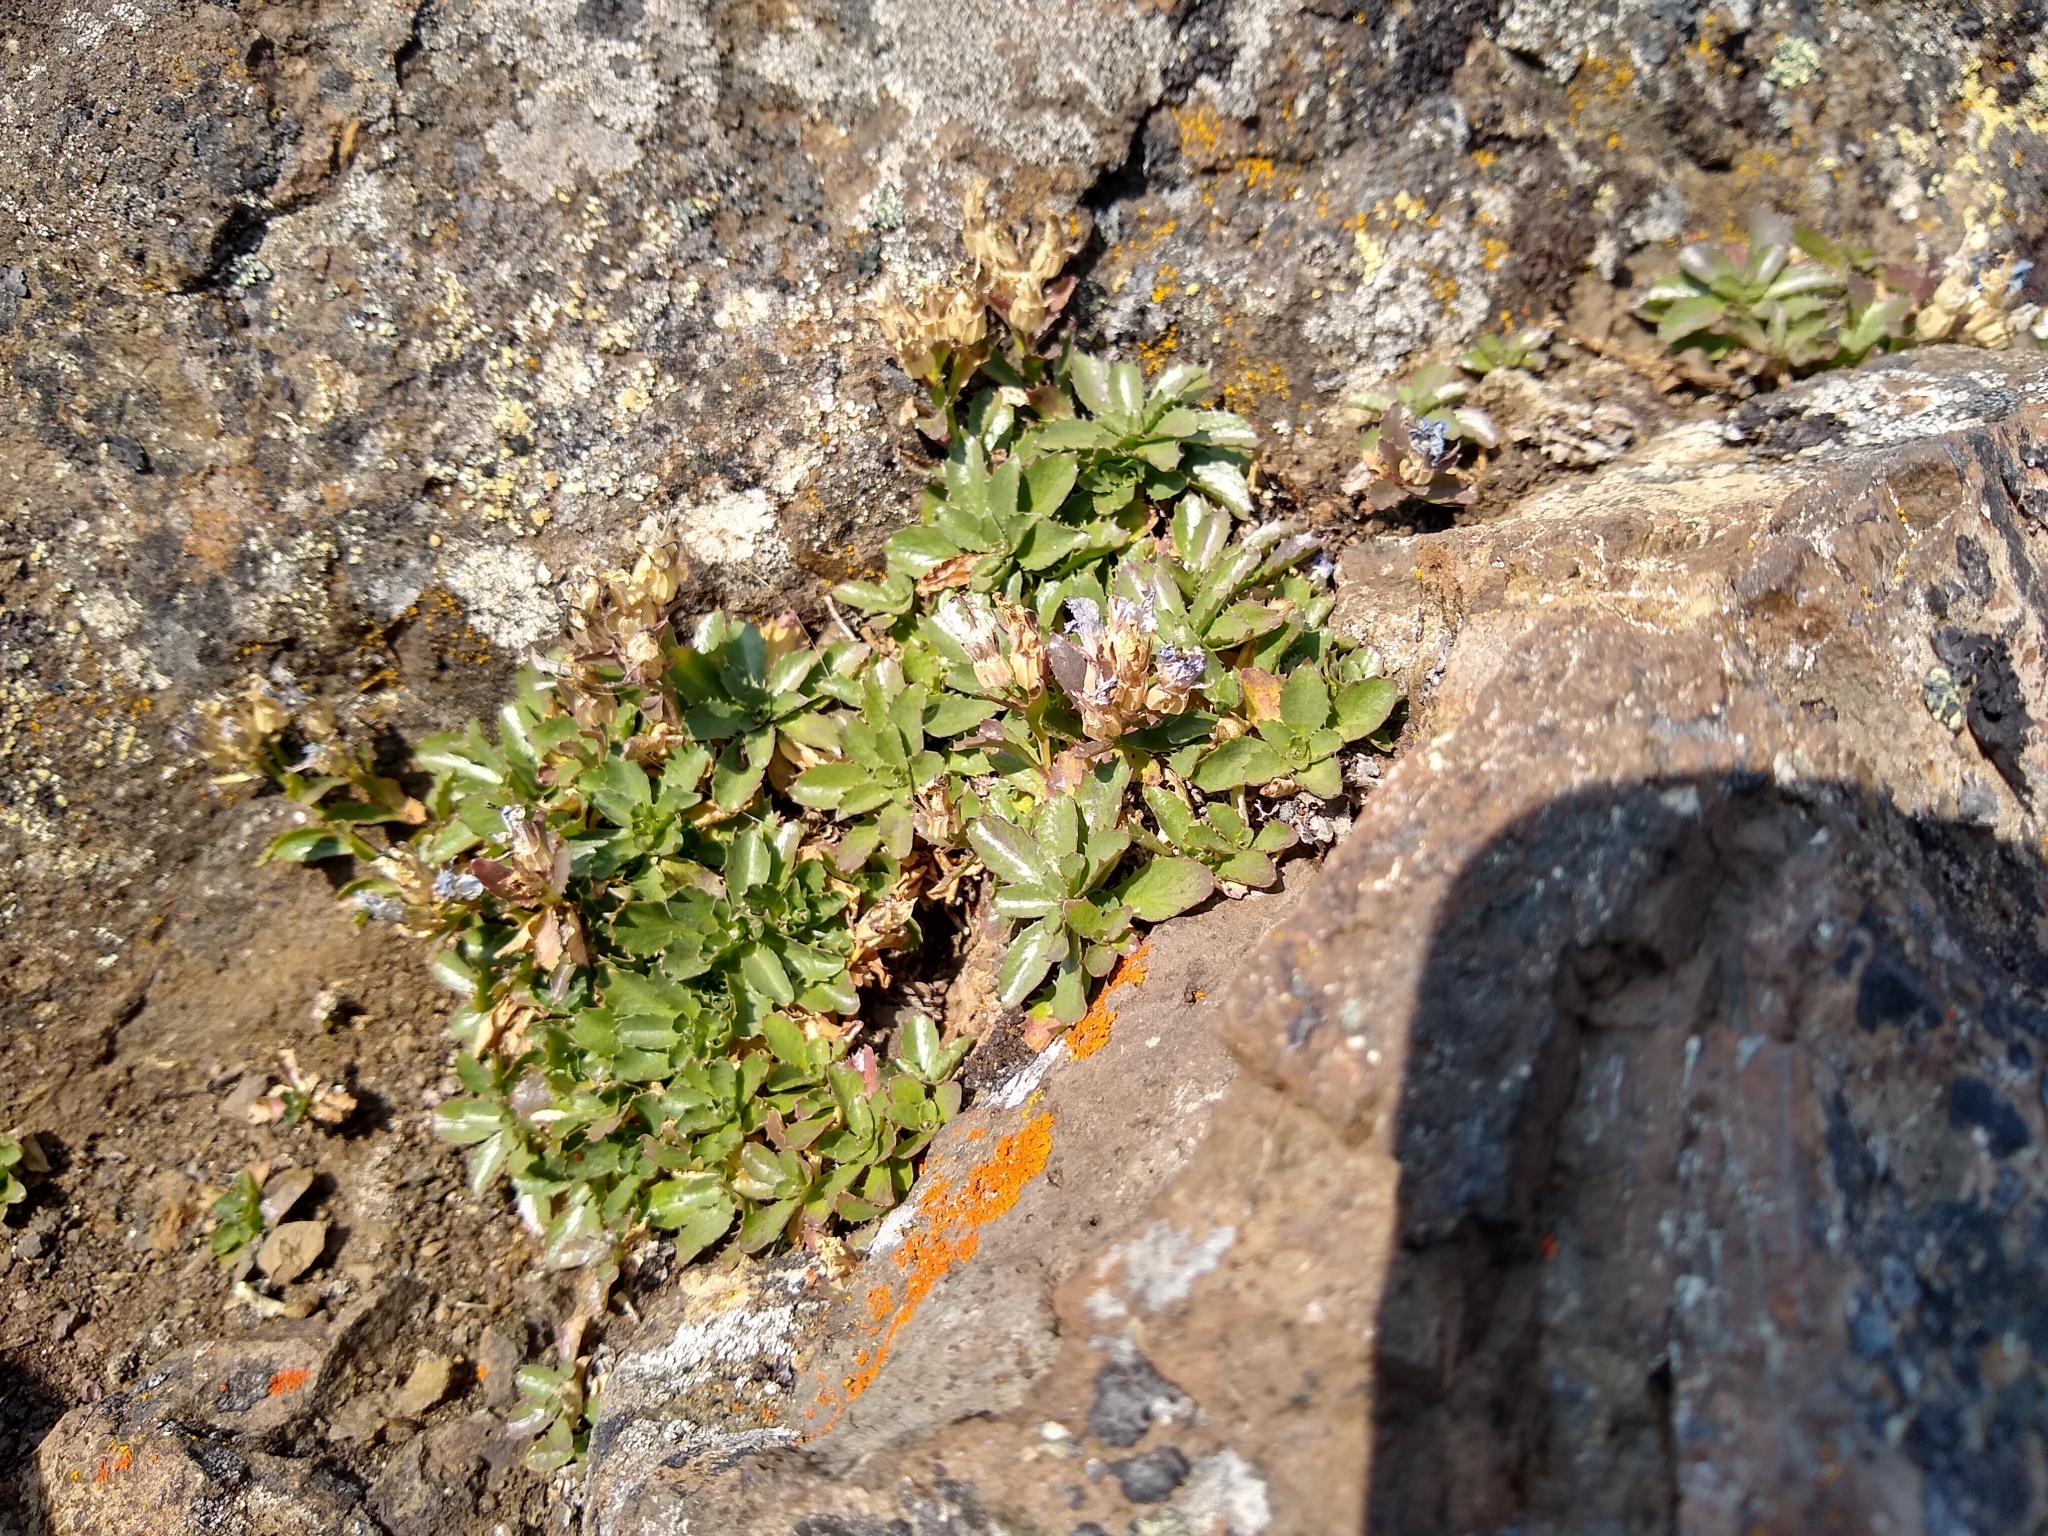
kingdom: Plantae
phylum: Tracheophyta
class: Magnoliopsida
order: Asterales
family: Campanulaceae
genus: Campanula
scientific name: Campanula piperi
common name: Olympic bellflower
